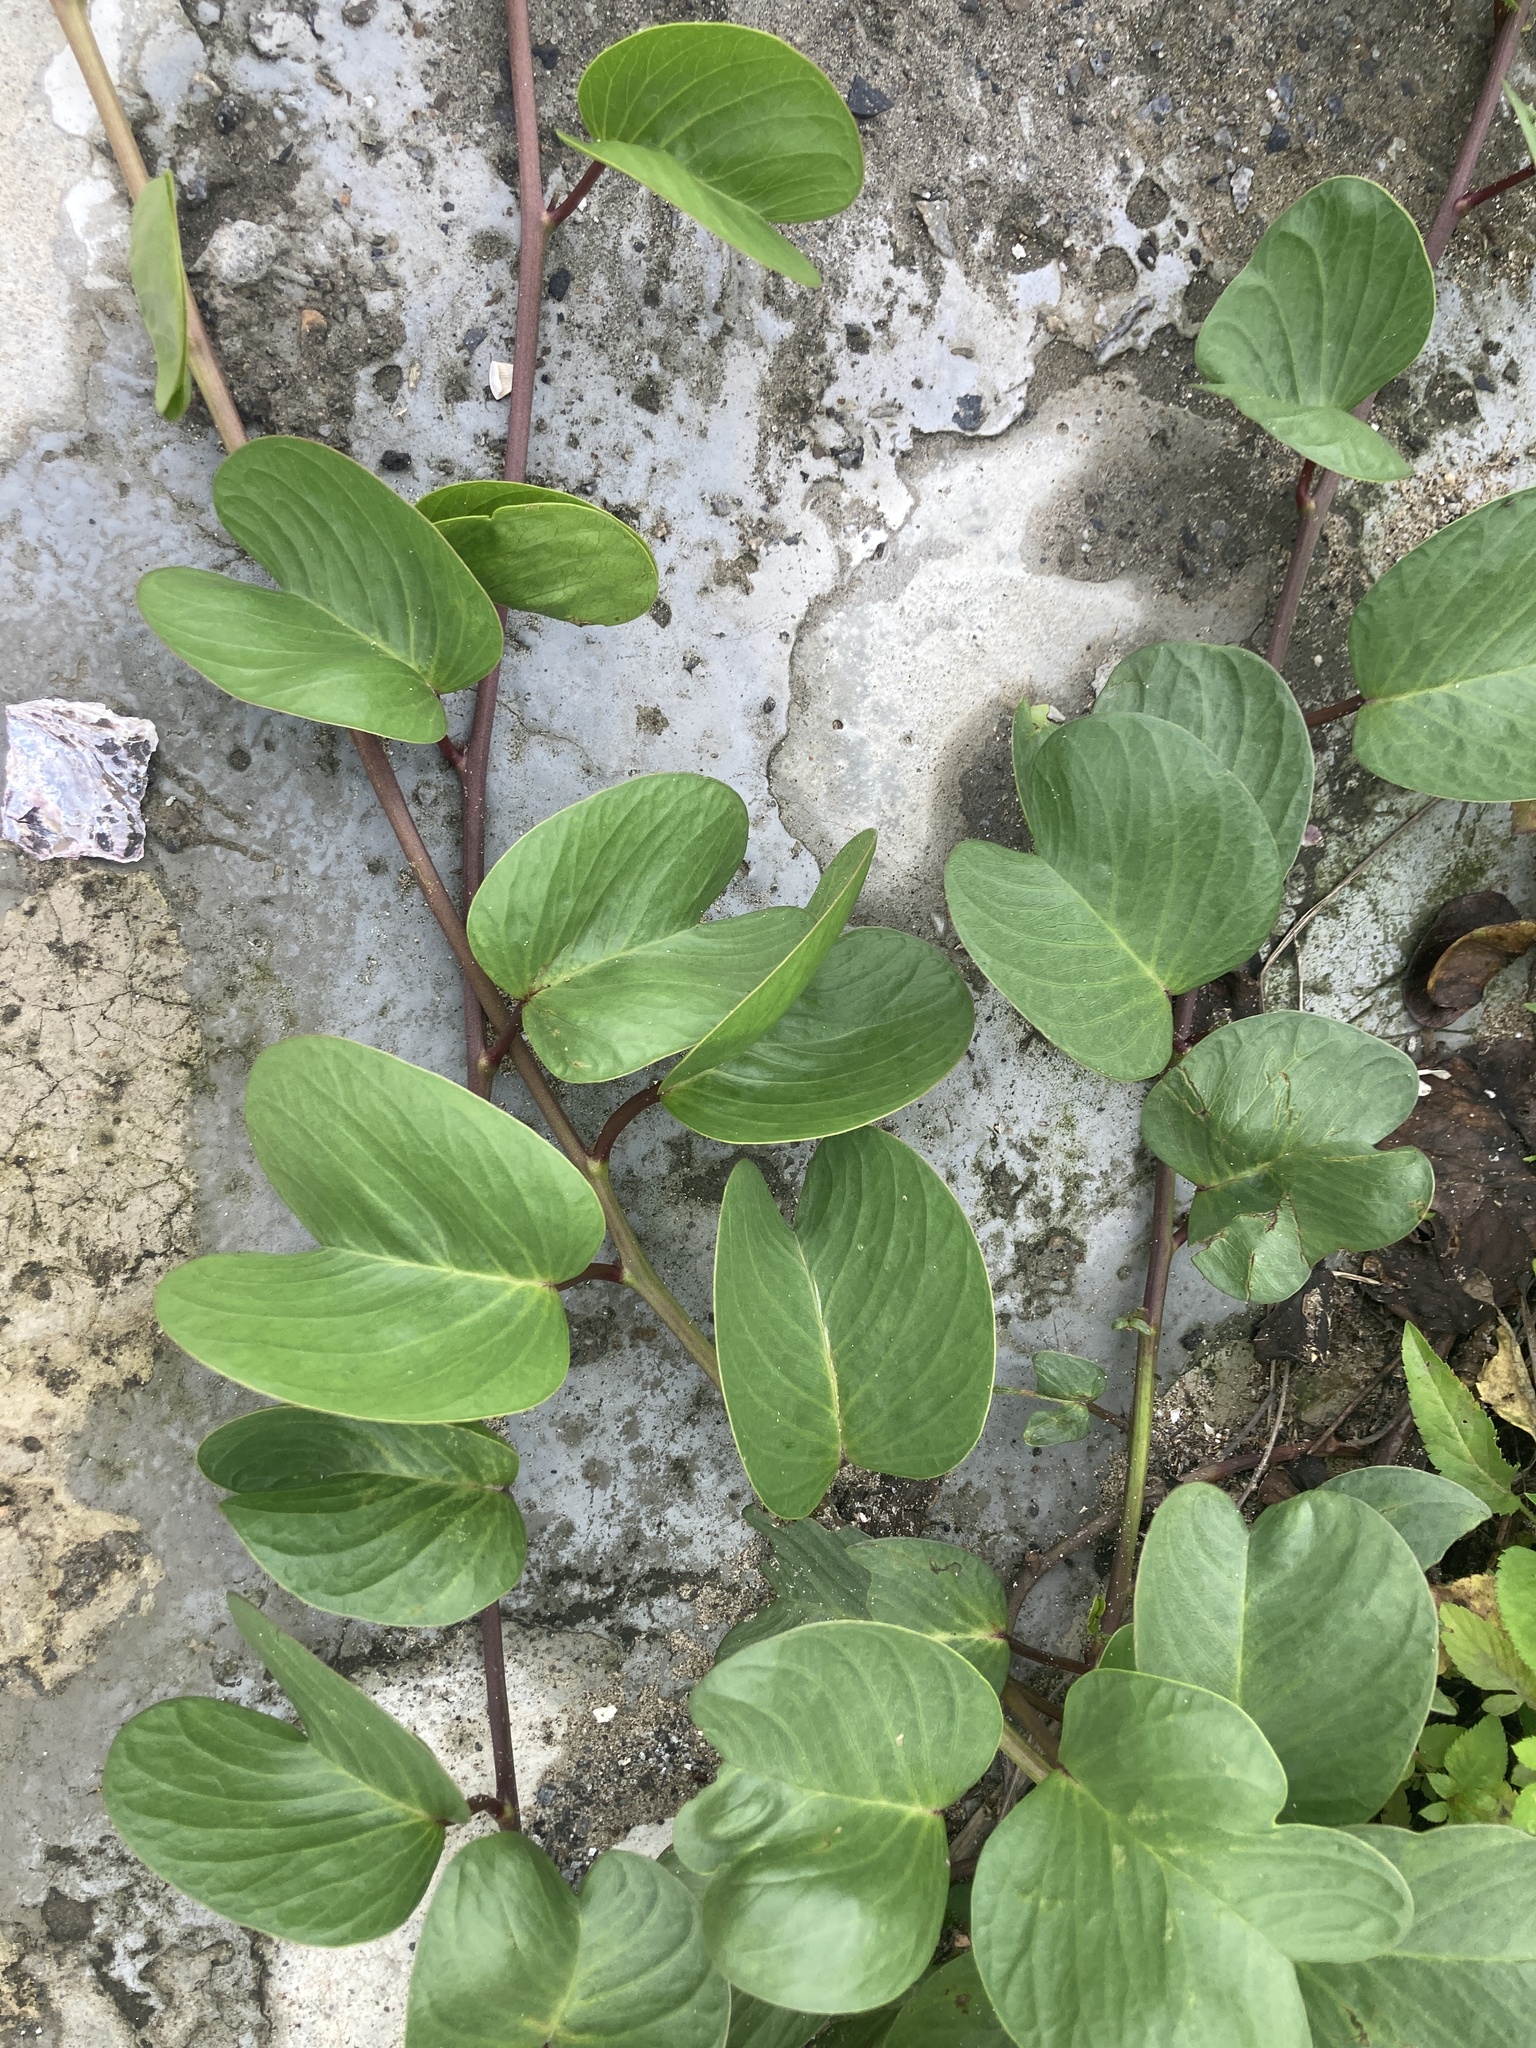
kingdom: Plantae
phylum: Tracheophyta
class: Magnoliopsida
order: Solanales
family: Convolvulaceae
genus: Ipomoea
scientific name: Ipomoea pes-caprae
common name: Beach morning glory
